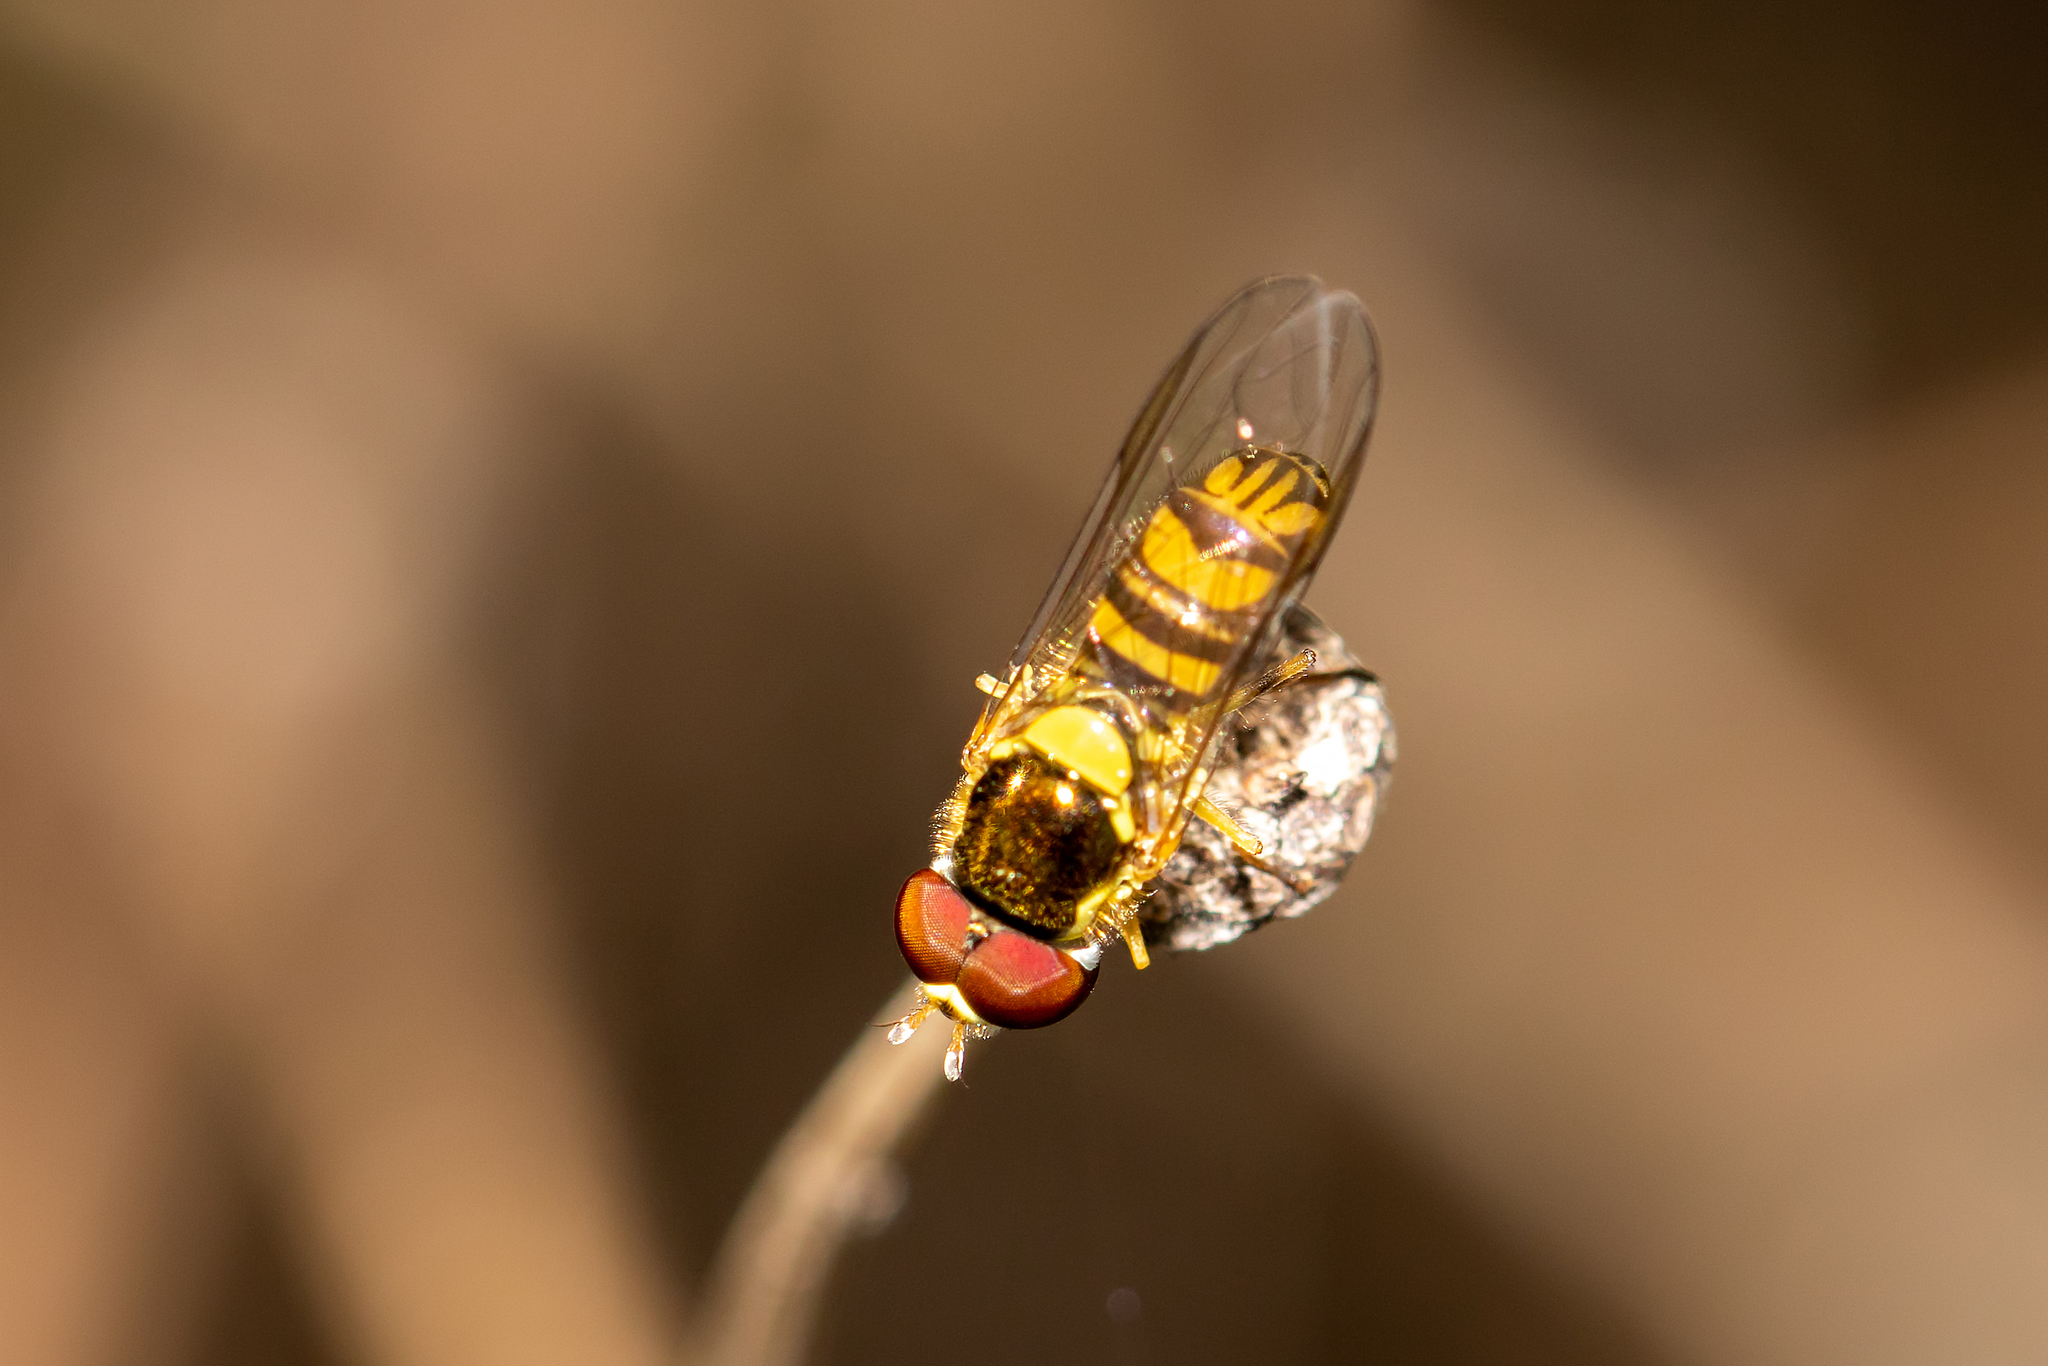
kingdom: Animalia
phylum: Arthropoda
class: Insecta
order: Diptera
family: Syrphidae
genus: Allograpta
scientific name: Allograpta obliqua
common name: Common oblique syrphid
